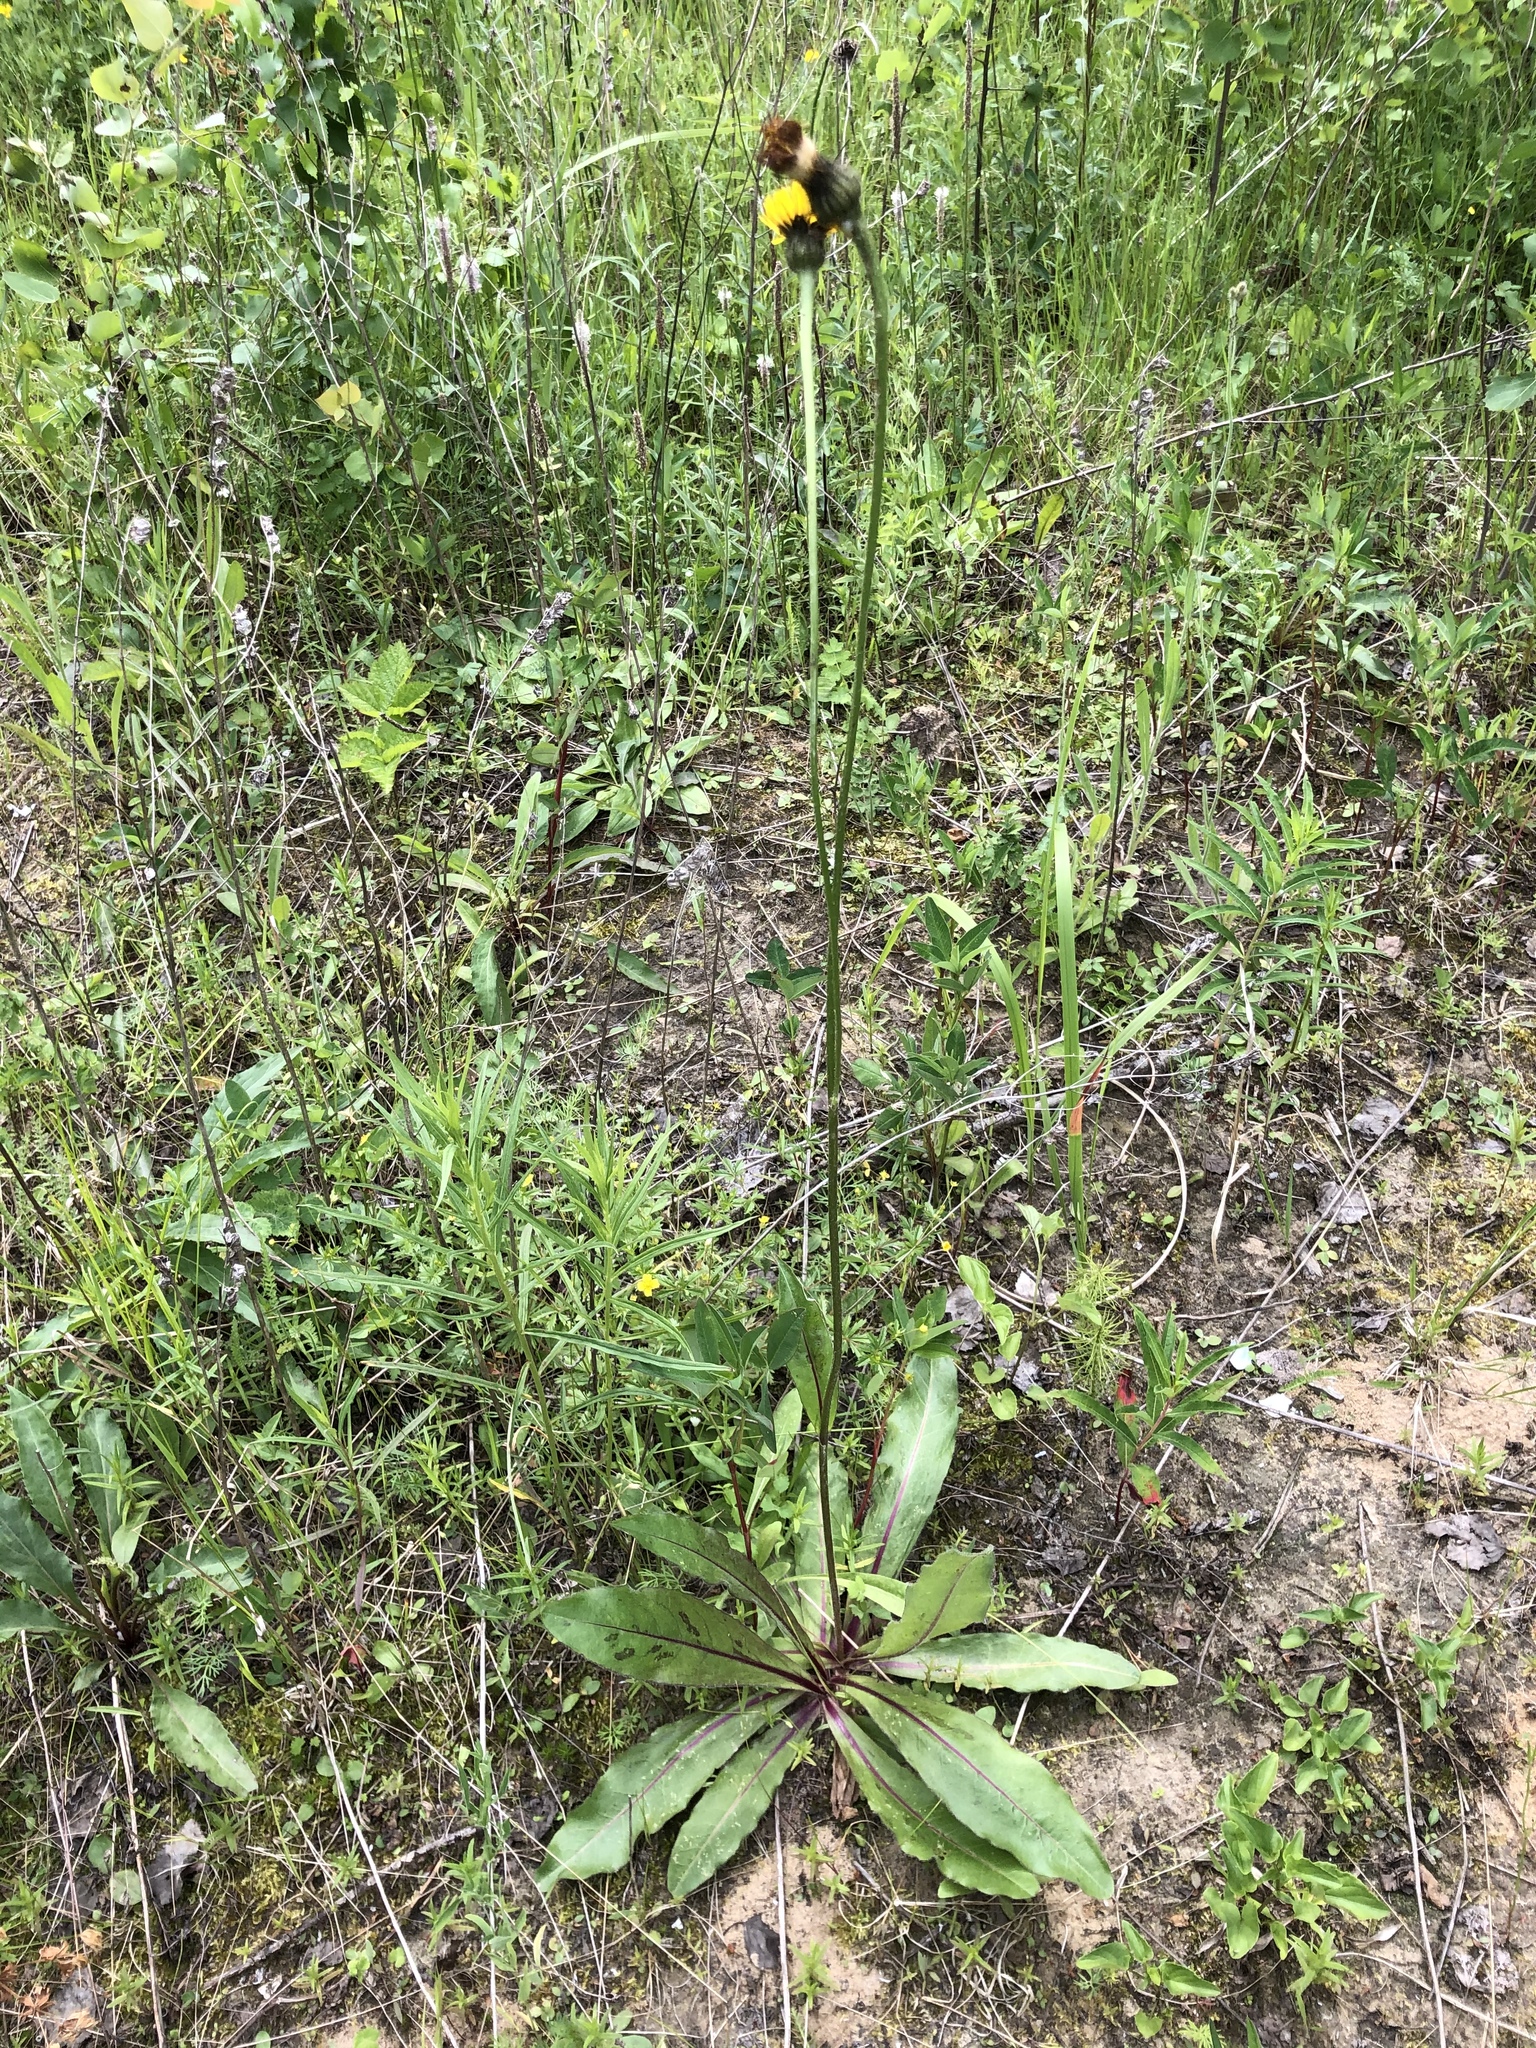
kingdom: Plantae
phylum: Tracheophyta
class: Magnoliopsida
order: Asterales
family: Asteraceae
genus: Trommsdorffia
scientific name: Trommsdorffia maculata
